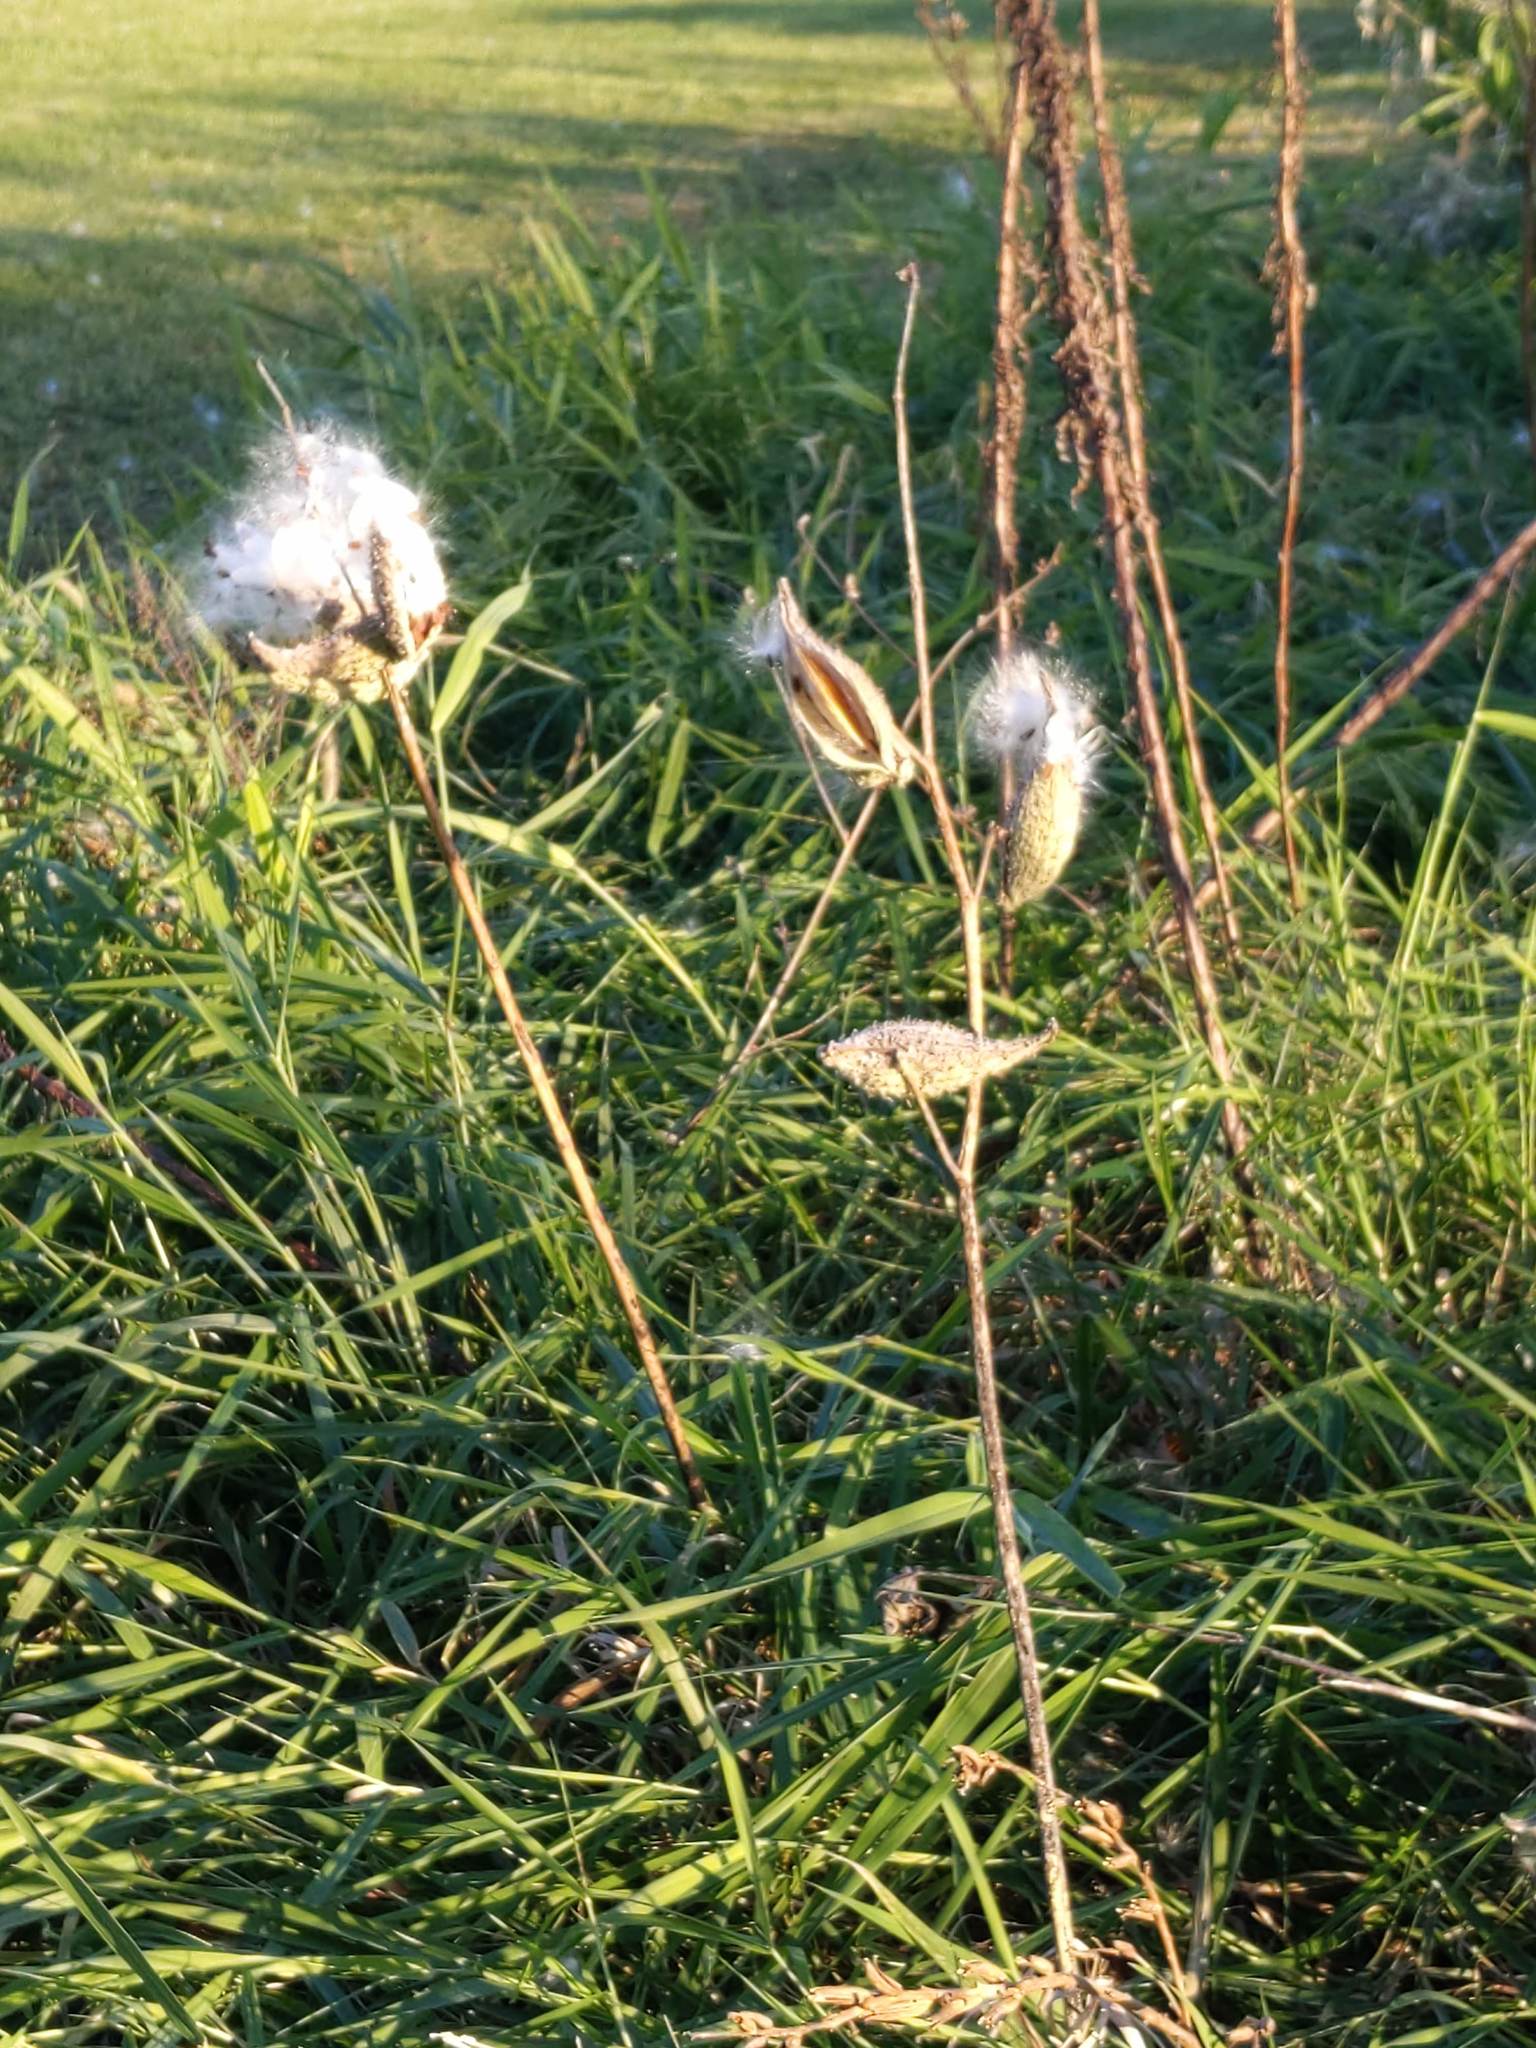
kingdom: Plantae
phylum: Tracheophyta
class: Magnoliopsida
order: Gentianales
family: Apocynaceae
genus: Asclepias
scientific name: Asclepias syriaca
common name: Common milkweed
